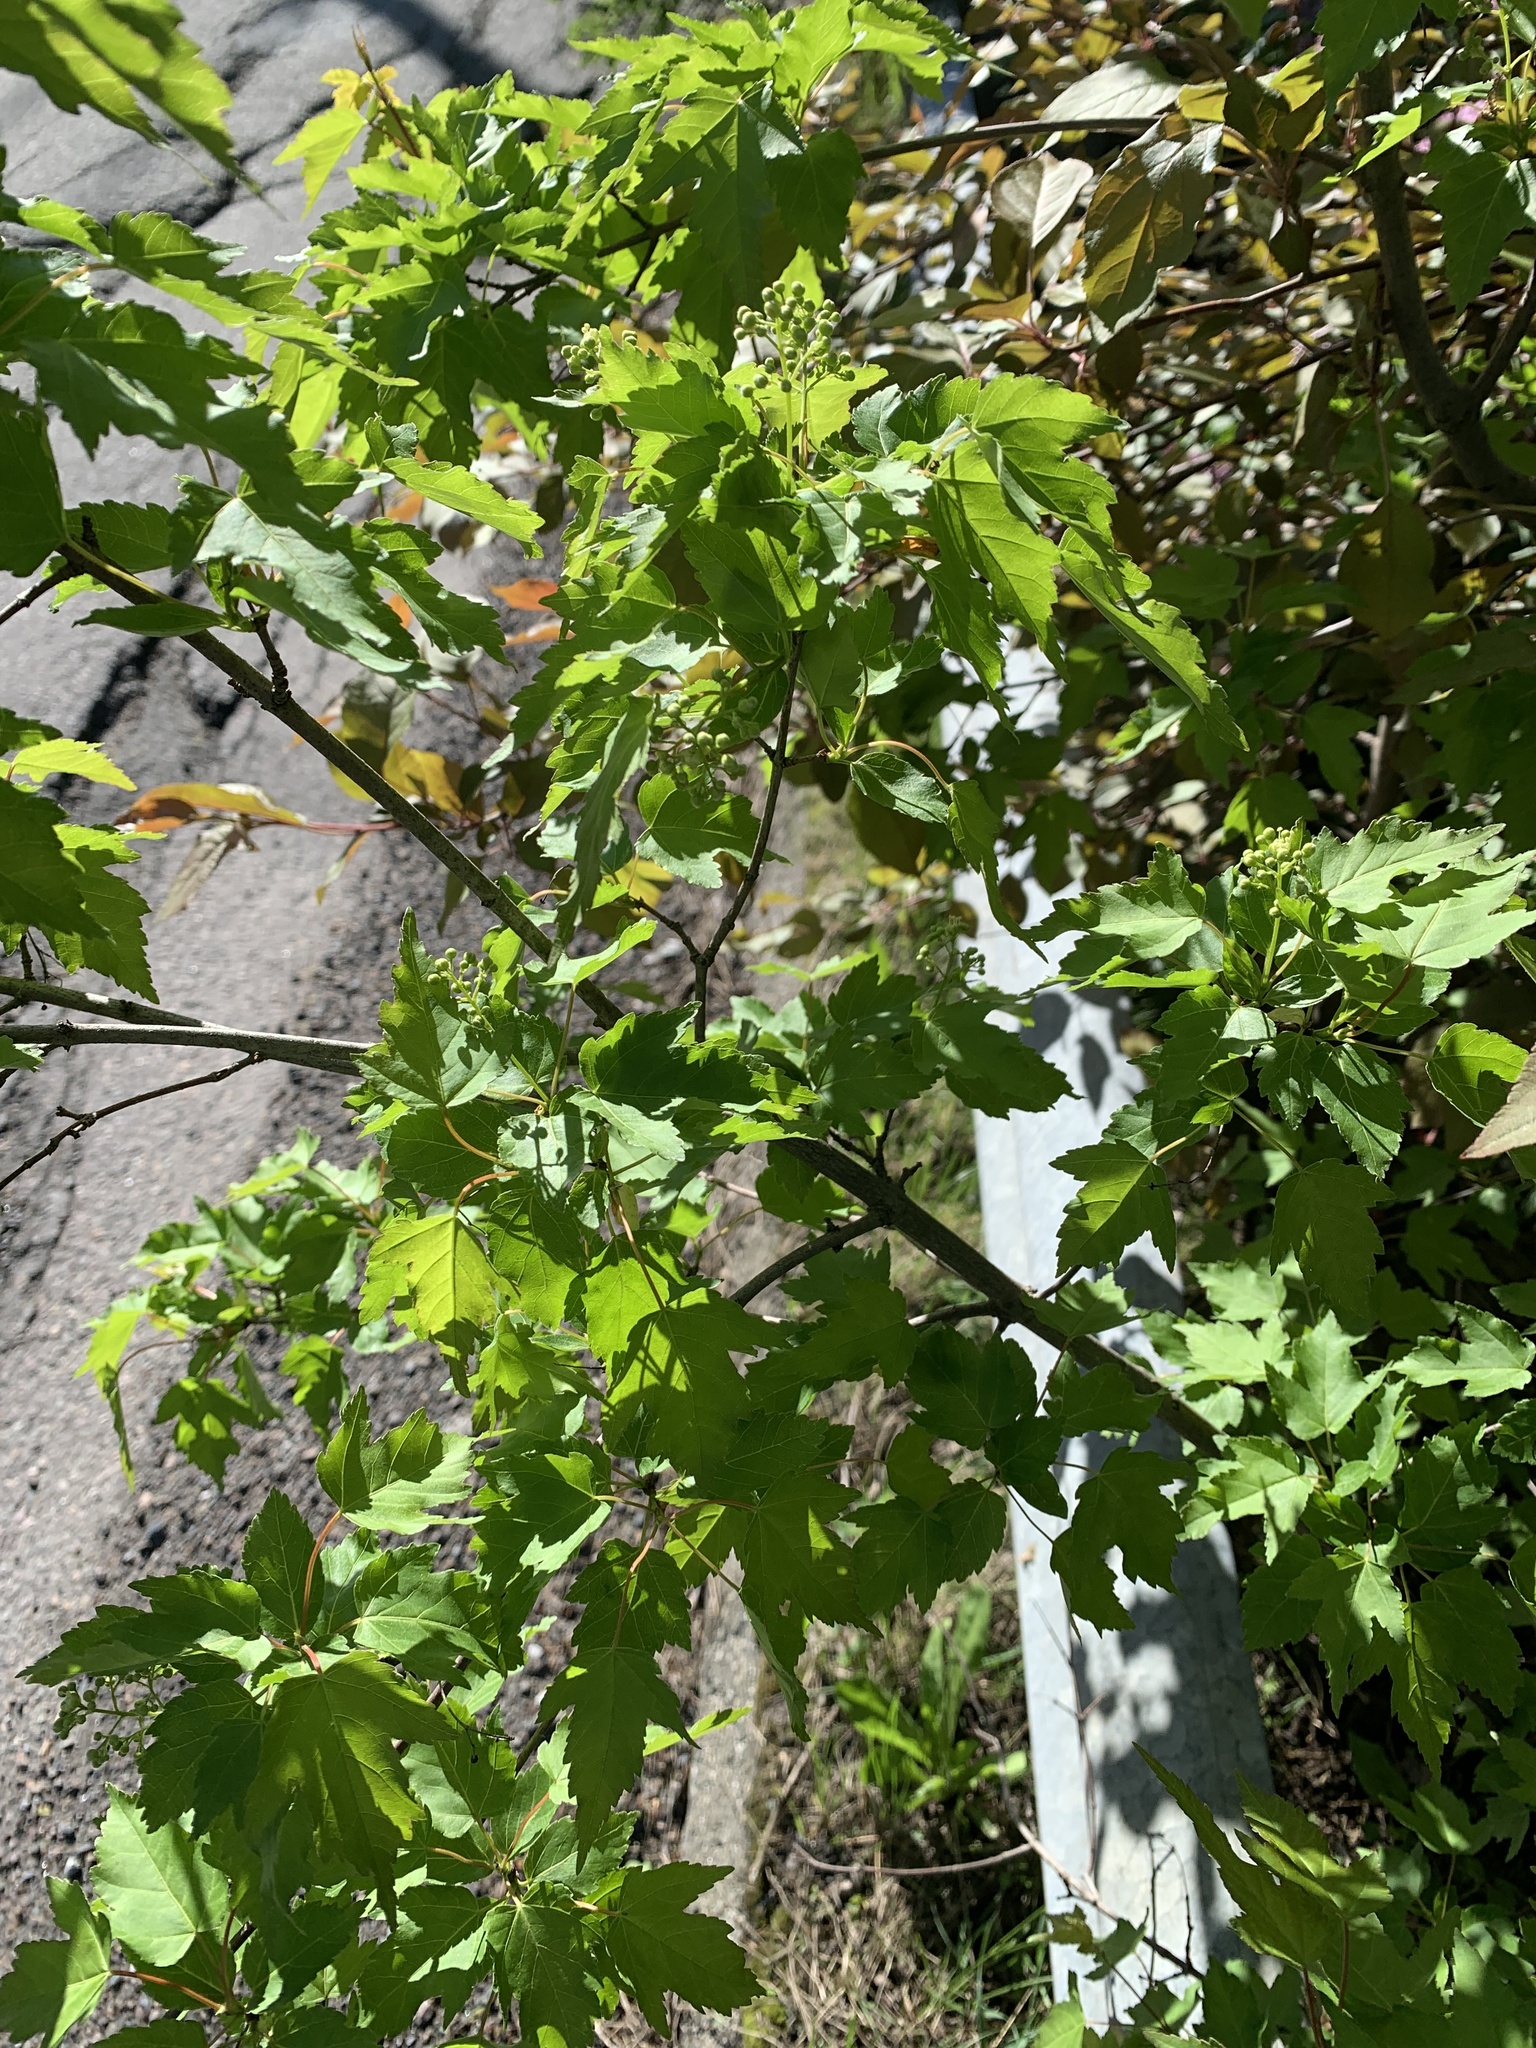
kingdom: Plantae
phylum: Tracheophyta
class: Magnoliopsida
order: Sapindales
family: Sapindaceae
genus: Acer
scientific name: Acer tataricum
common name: Tartar maple
